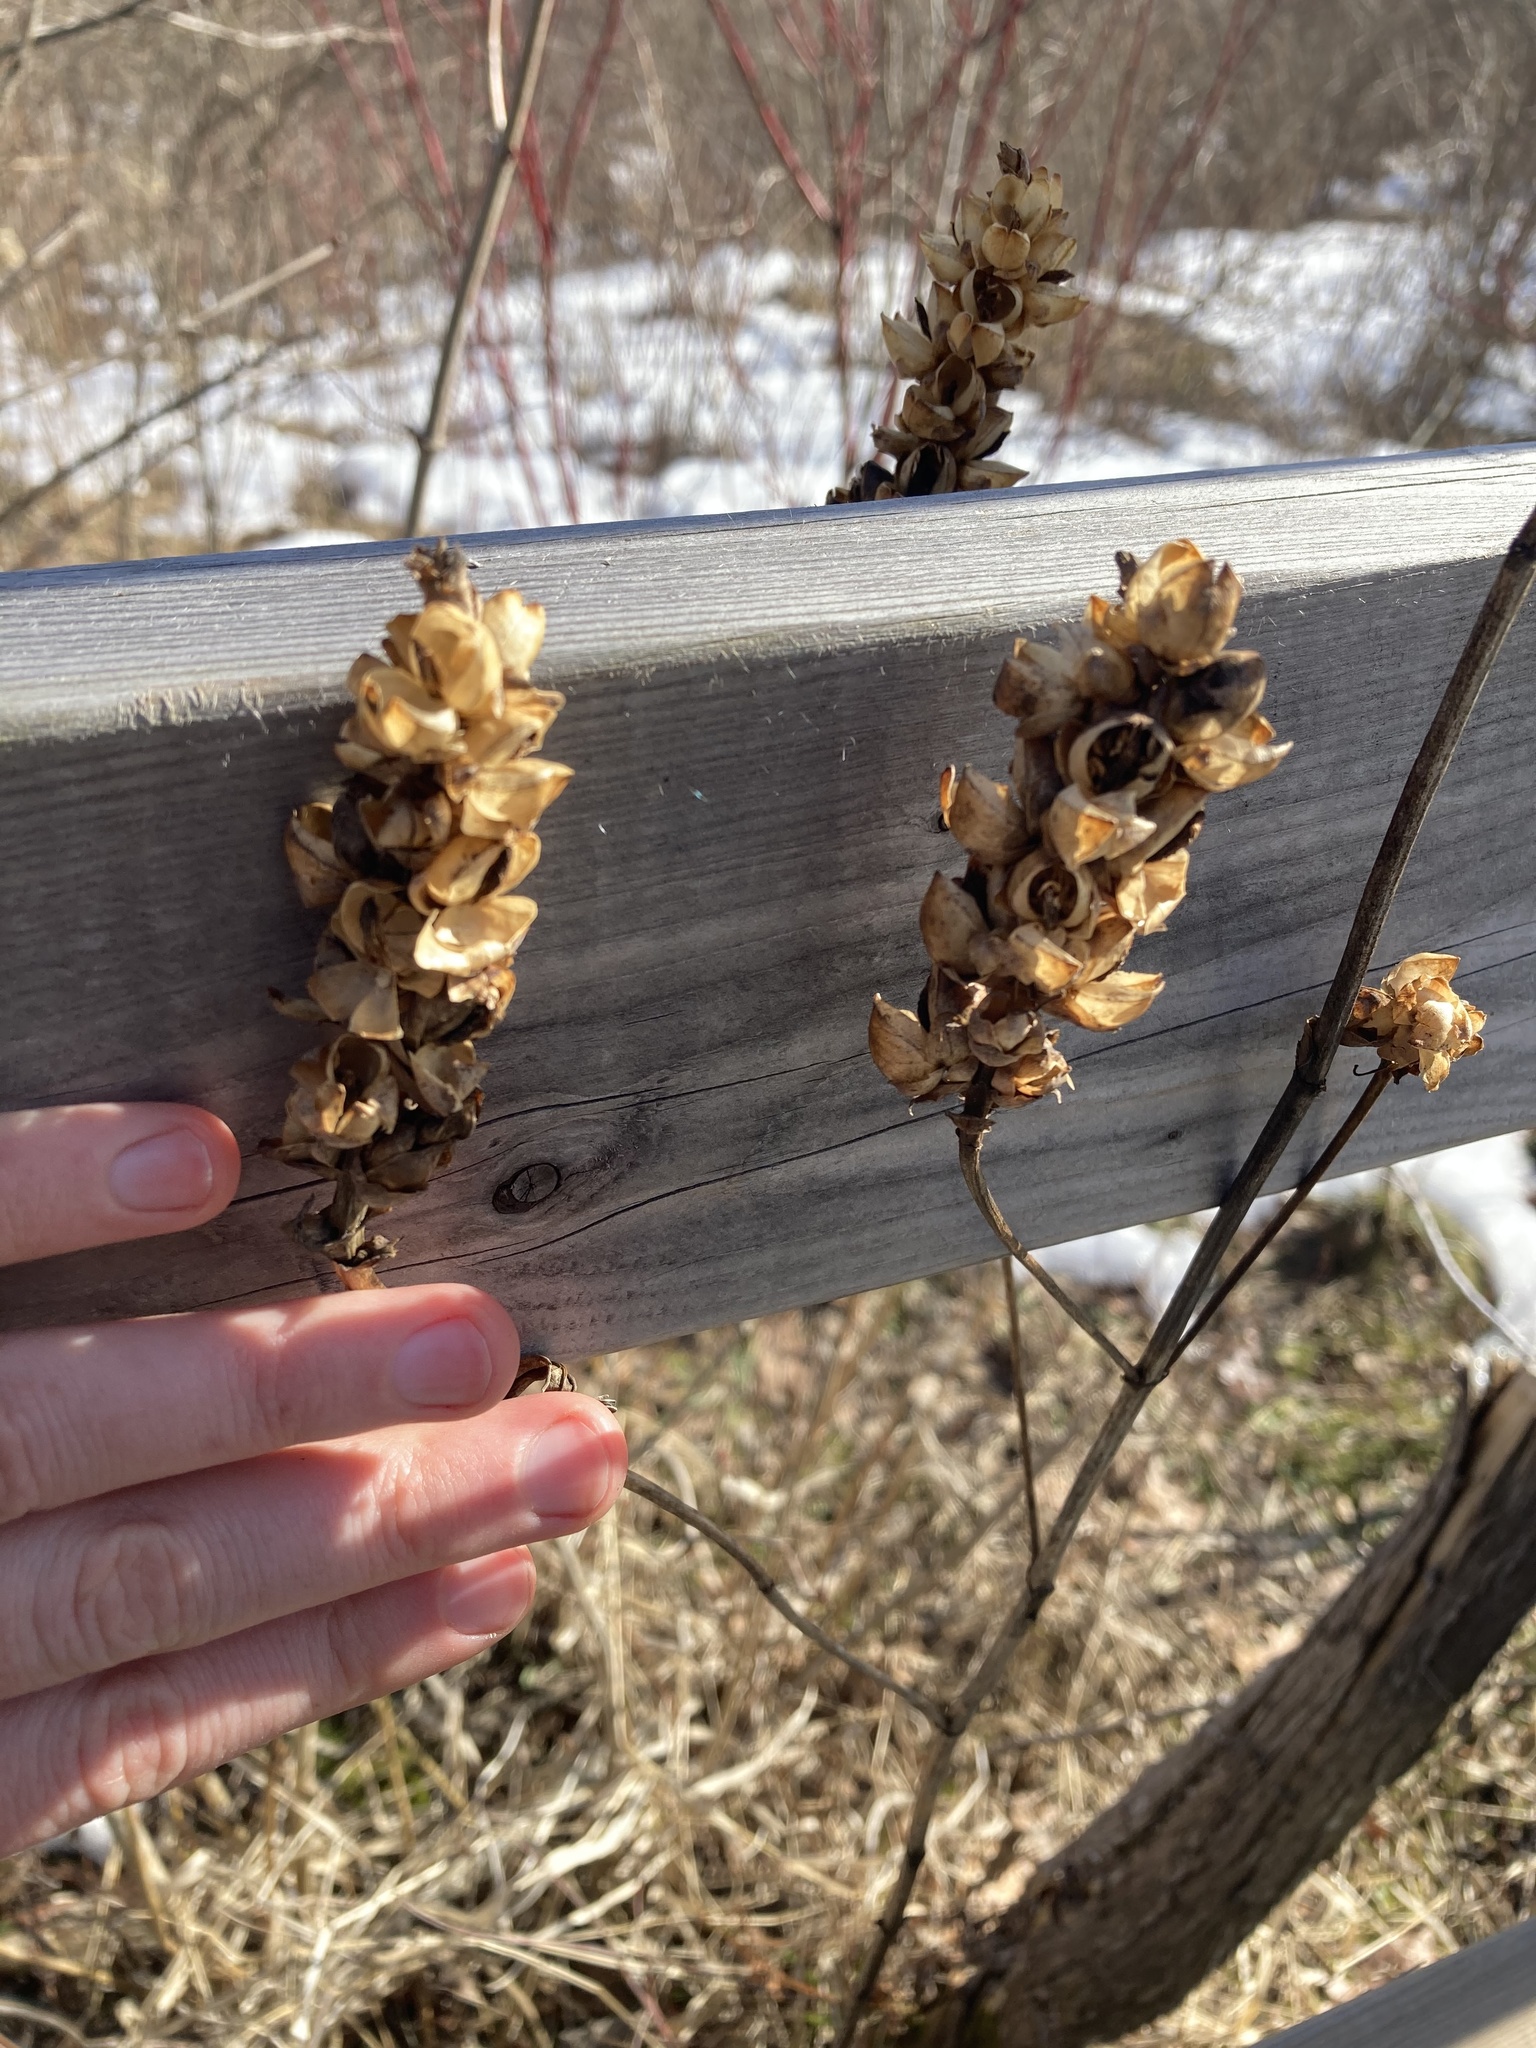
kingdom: Plantae
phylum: Tracheophyta
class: Magnoliopsida
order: Lamiales
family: Plantaginaceae
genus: Chelone
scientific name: Chelone glabra
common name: Snakehead
